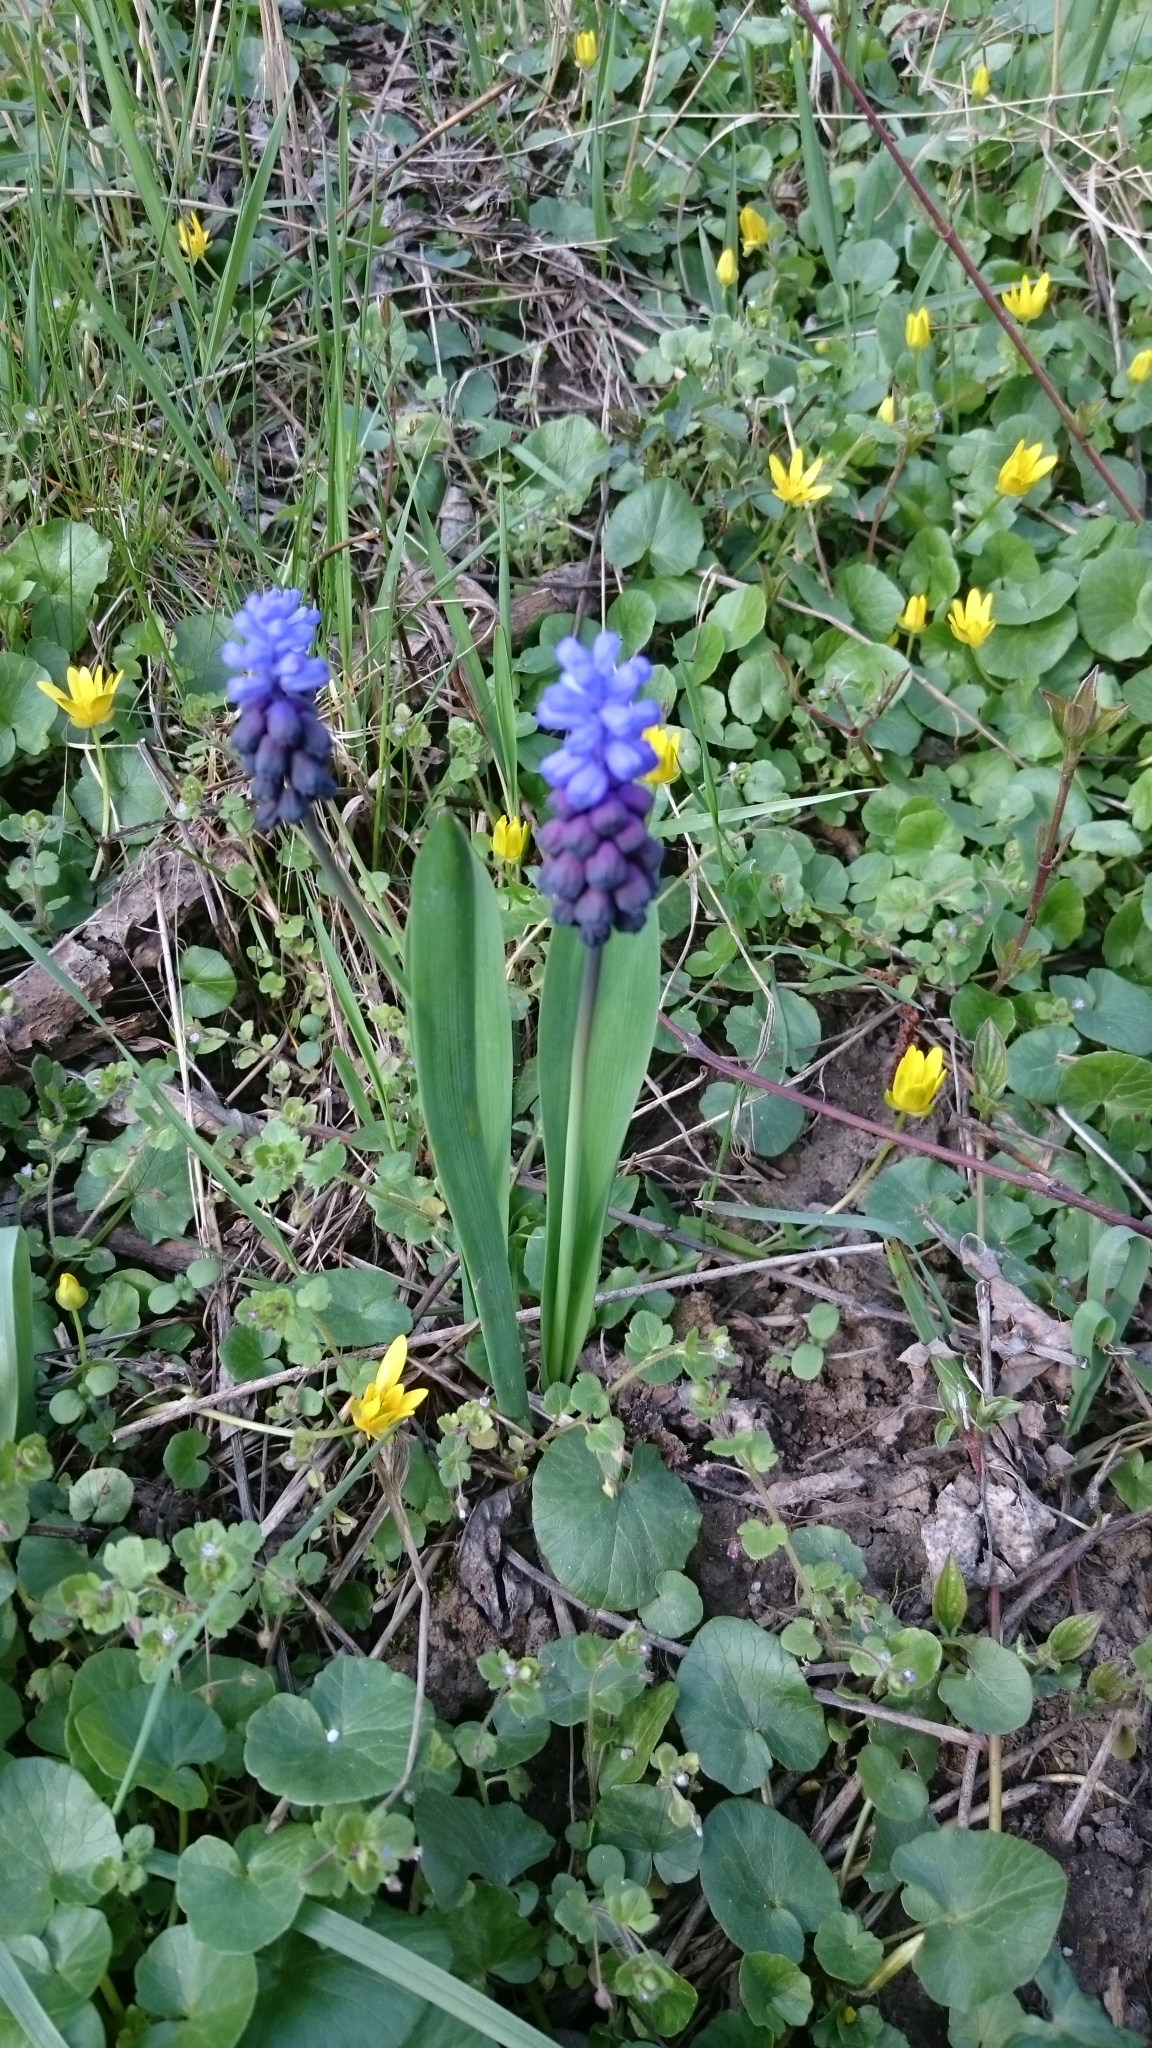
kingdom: Plantae
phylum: Tracheophyta
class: Liliopsida
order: Asparagales
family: Asparagaceae
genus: Muscari
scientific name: Muscari latifolium
